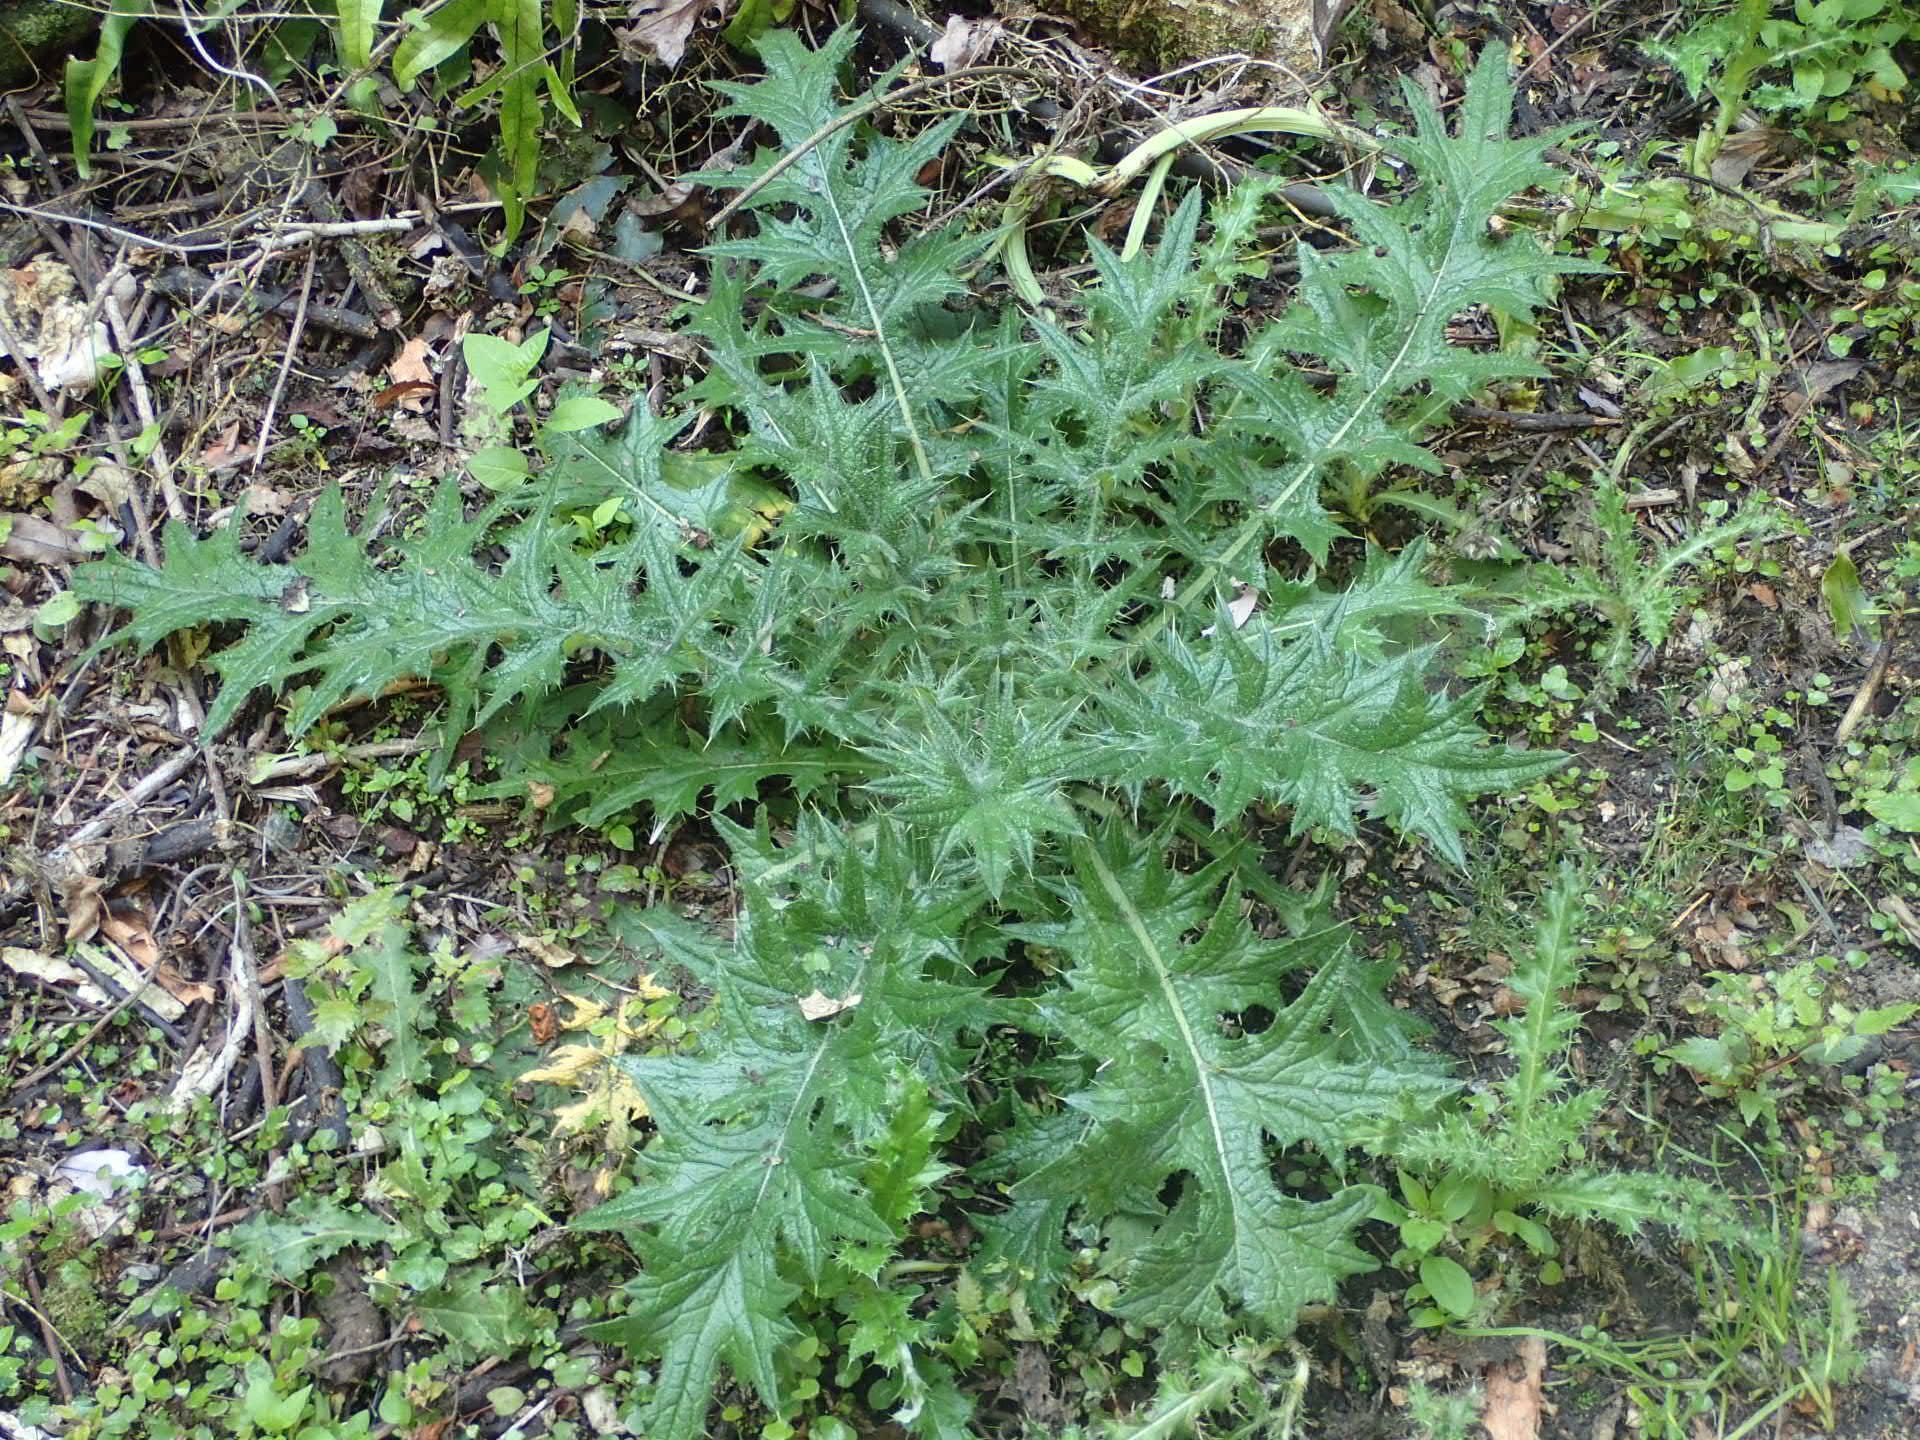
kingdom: Plantae
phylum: Tracheophyta
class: Magnoliopsida
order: Asterales
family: Asteraceae
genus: Cirsium
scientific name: Cirsium vulgare
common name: Bull thistle
